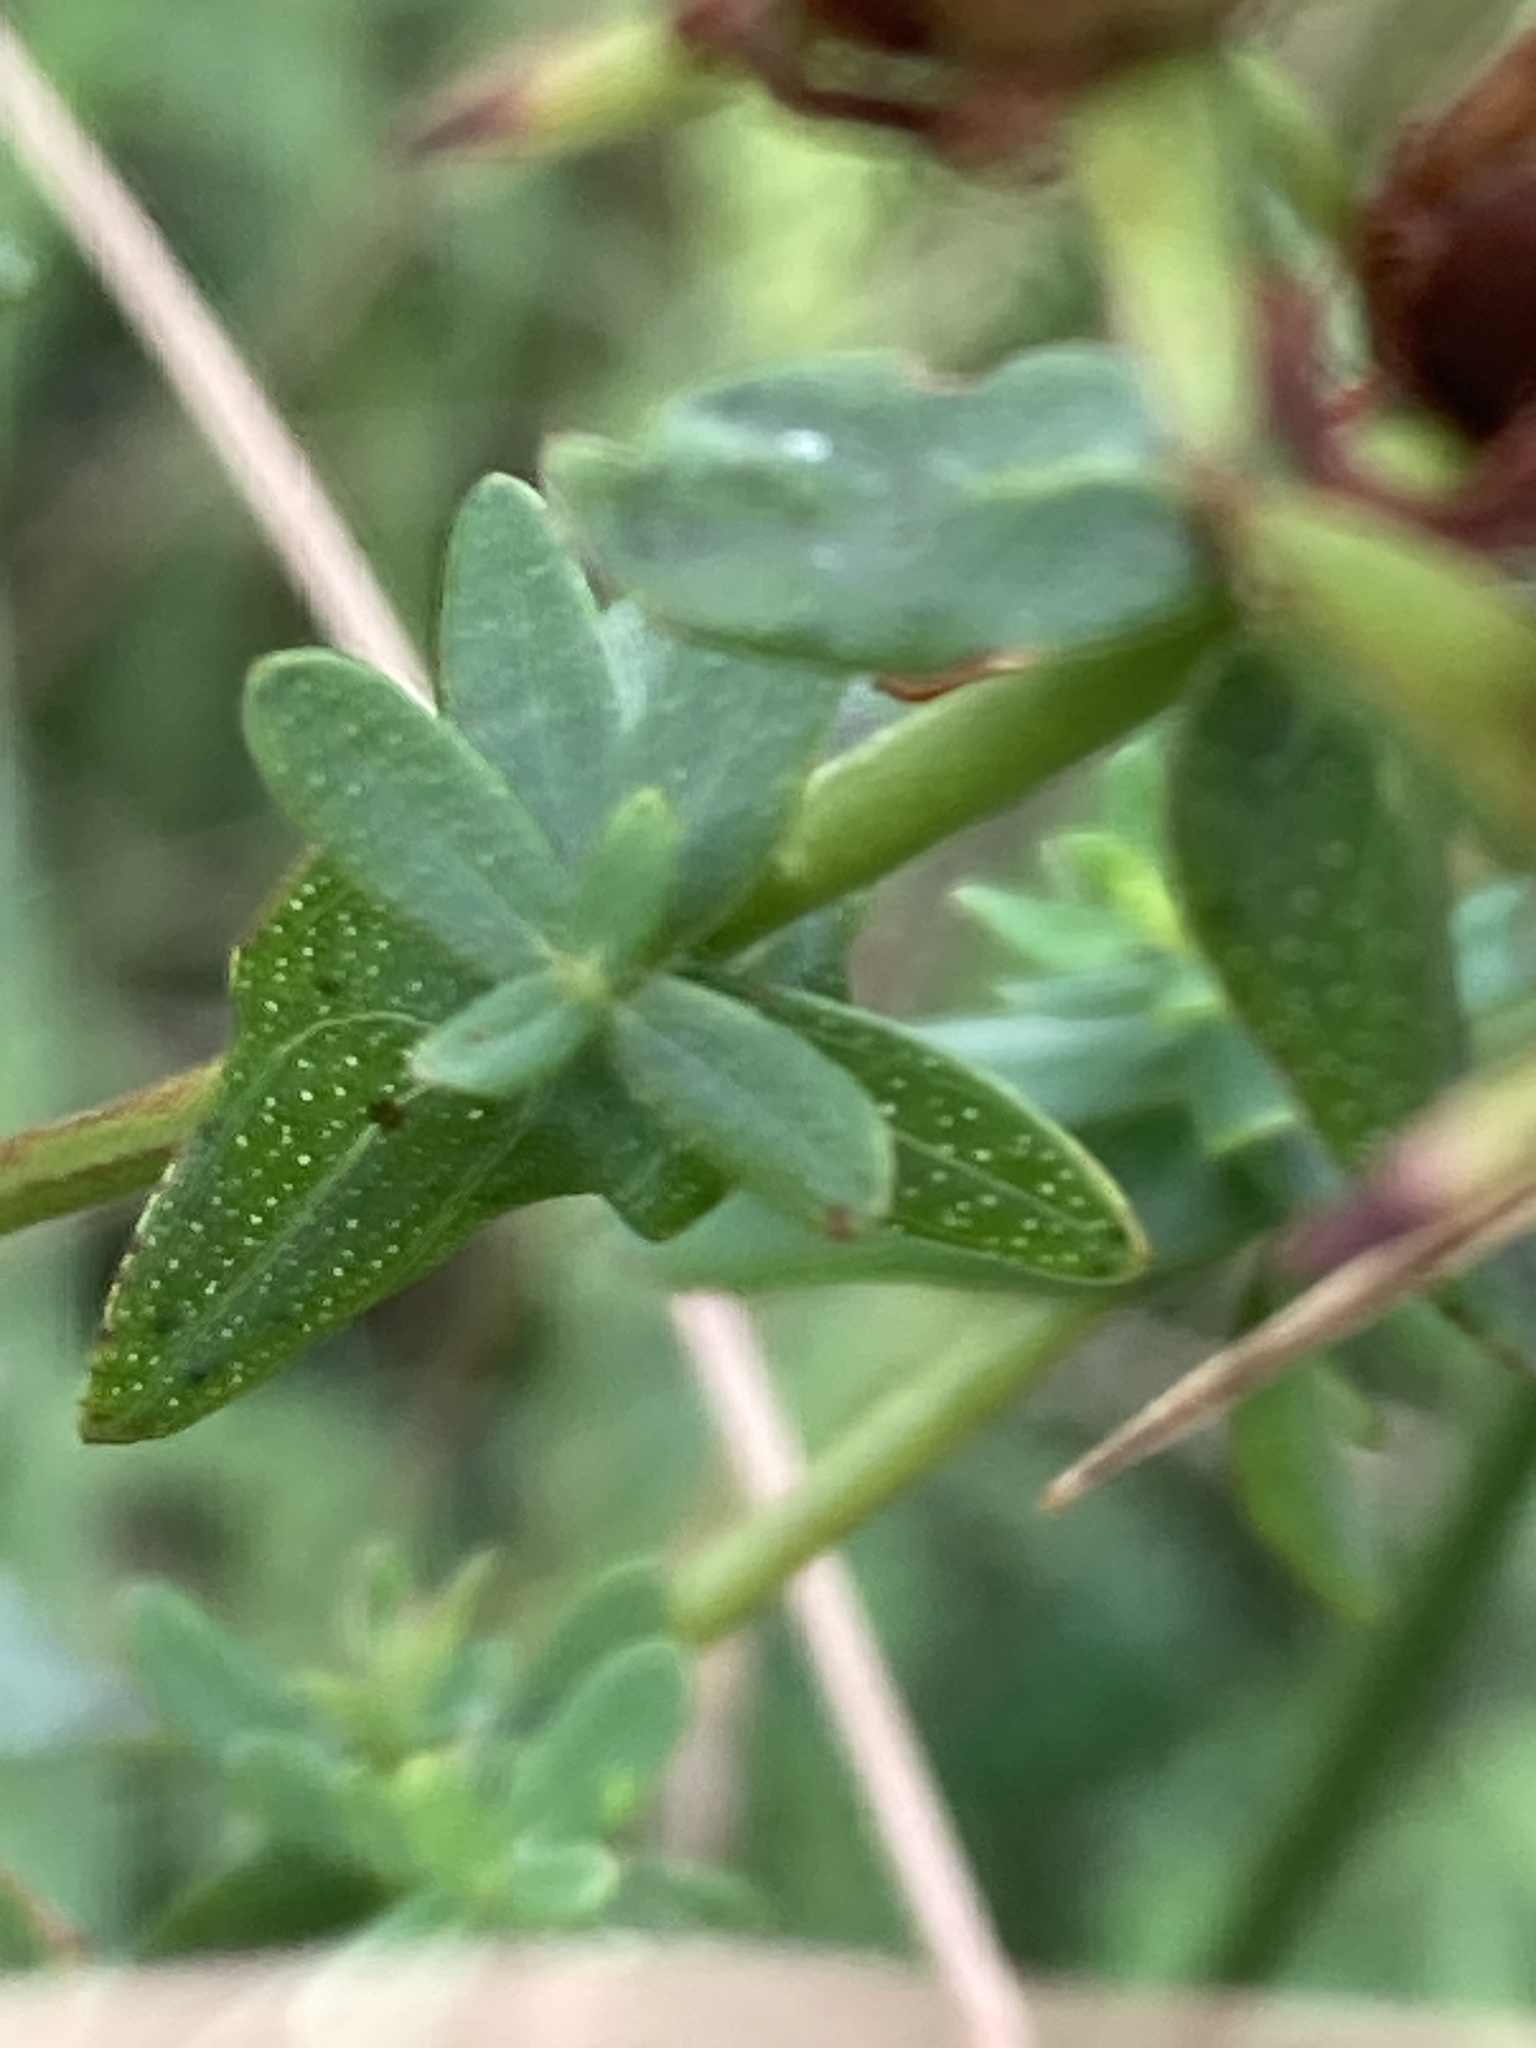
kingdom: Plantae
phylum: Tracheophyta
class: Magnoliopsida
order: Malpighiales
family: Hypericaceae
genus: Hypericum
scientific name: Hypericum perforatum
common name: Common st. johnswort
